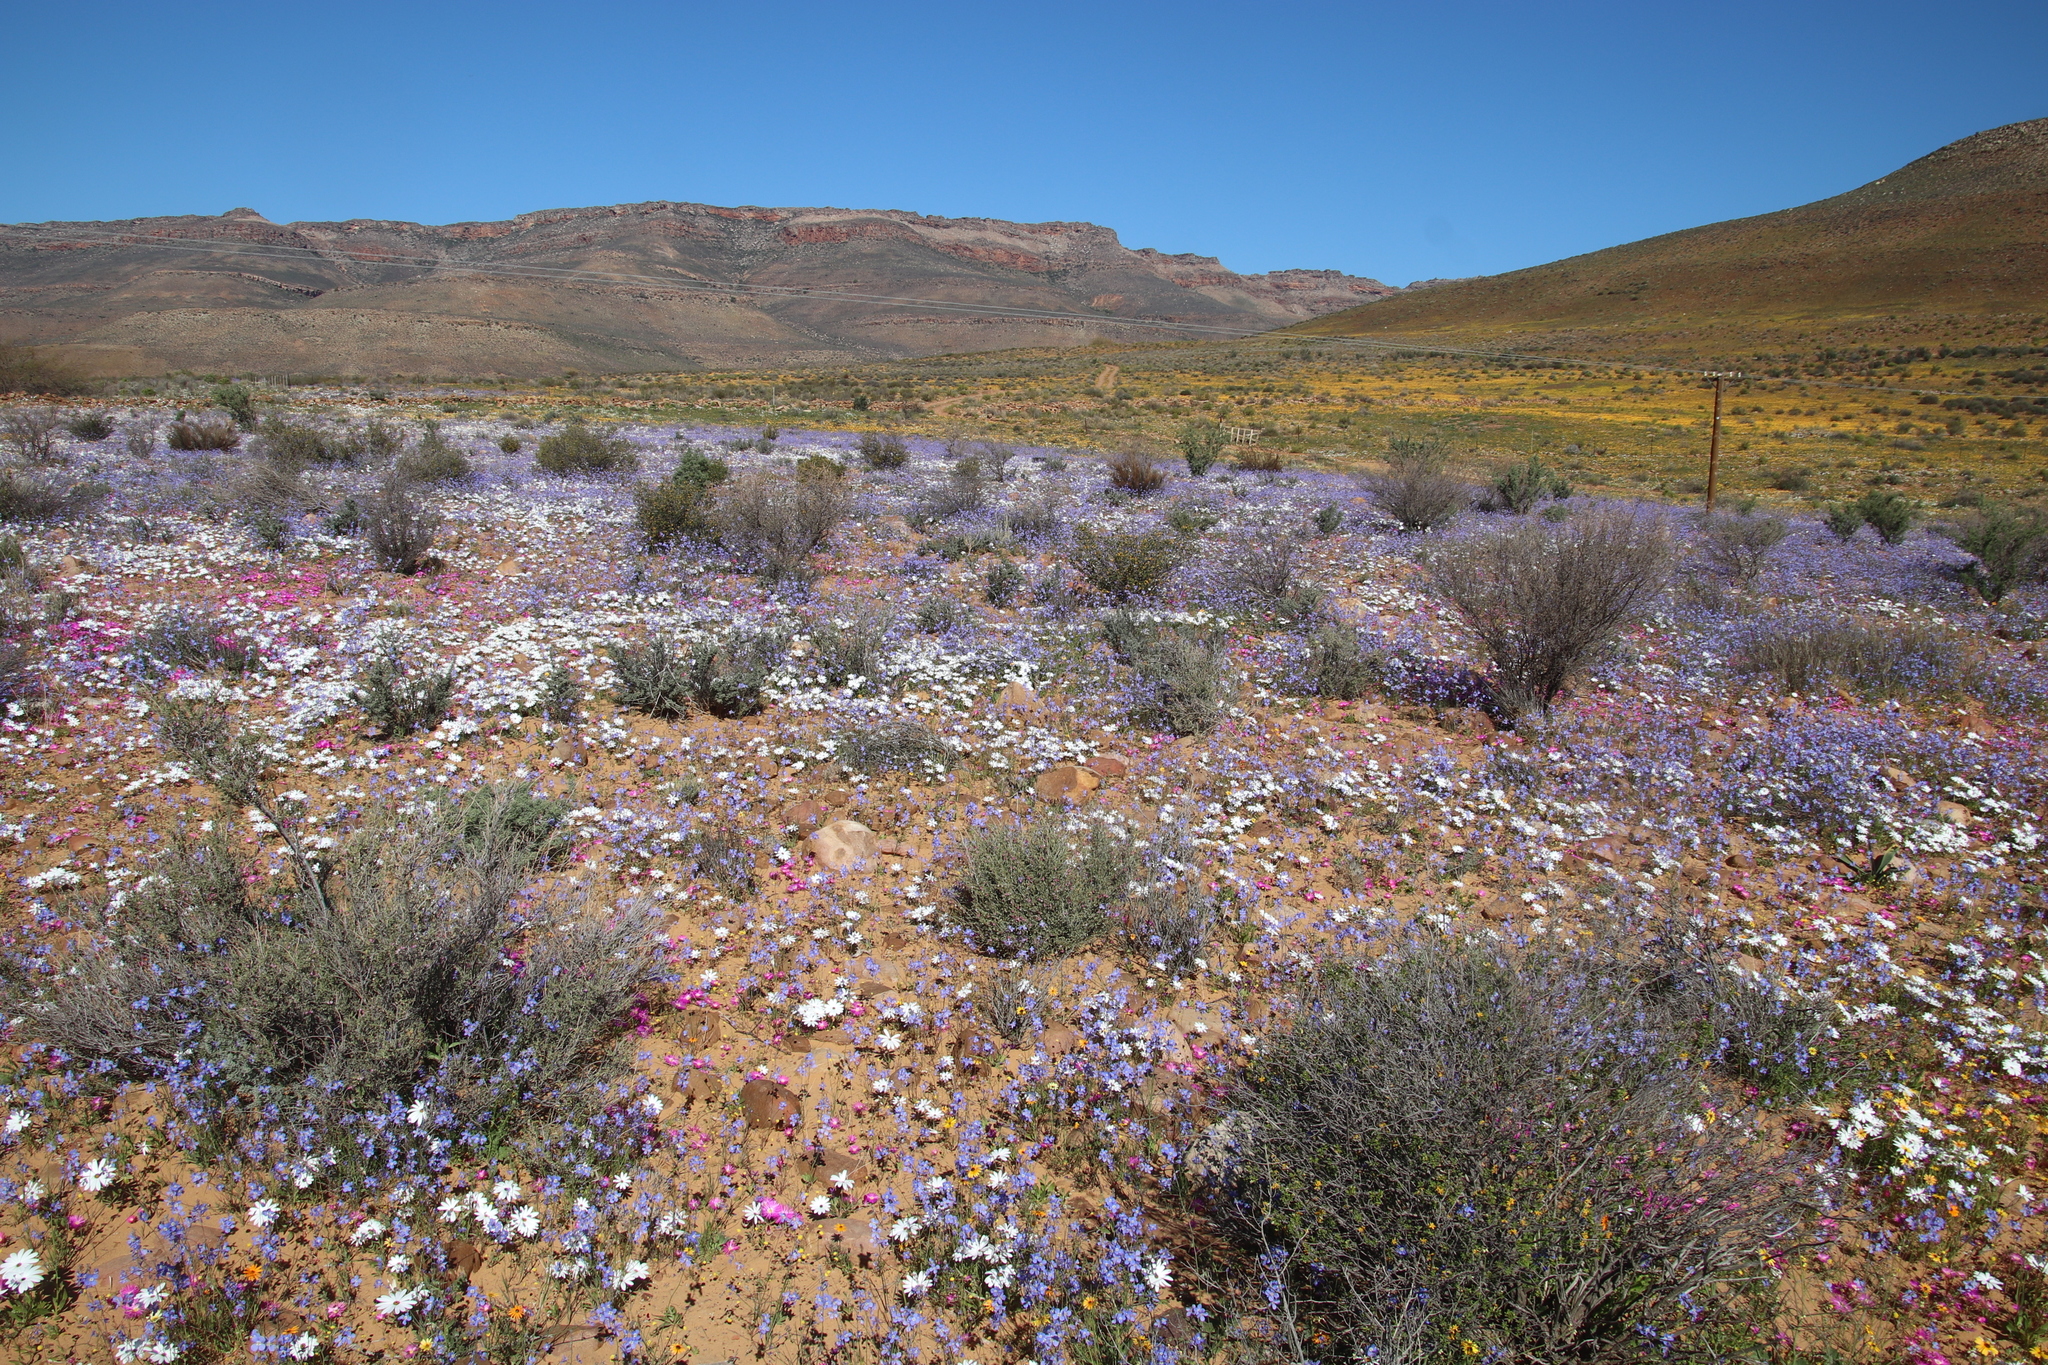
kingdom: Plantae
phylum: Tracheophyta
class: Magnoliopsida
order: Asterales
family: Asteraceae
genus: Dimorphotheca
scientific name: Dimorphotheca pluvialis
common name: Weather prophet
